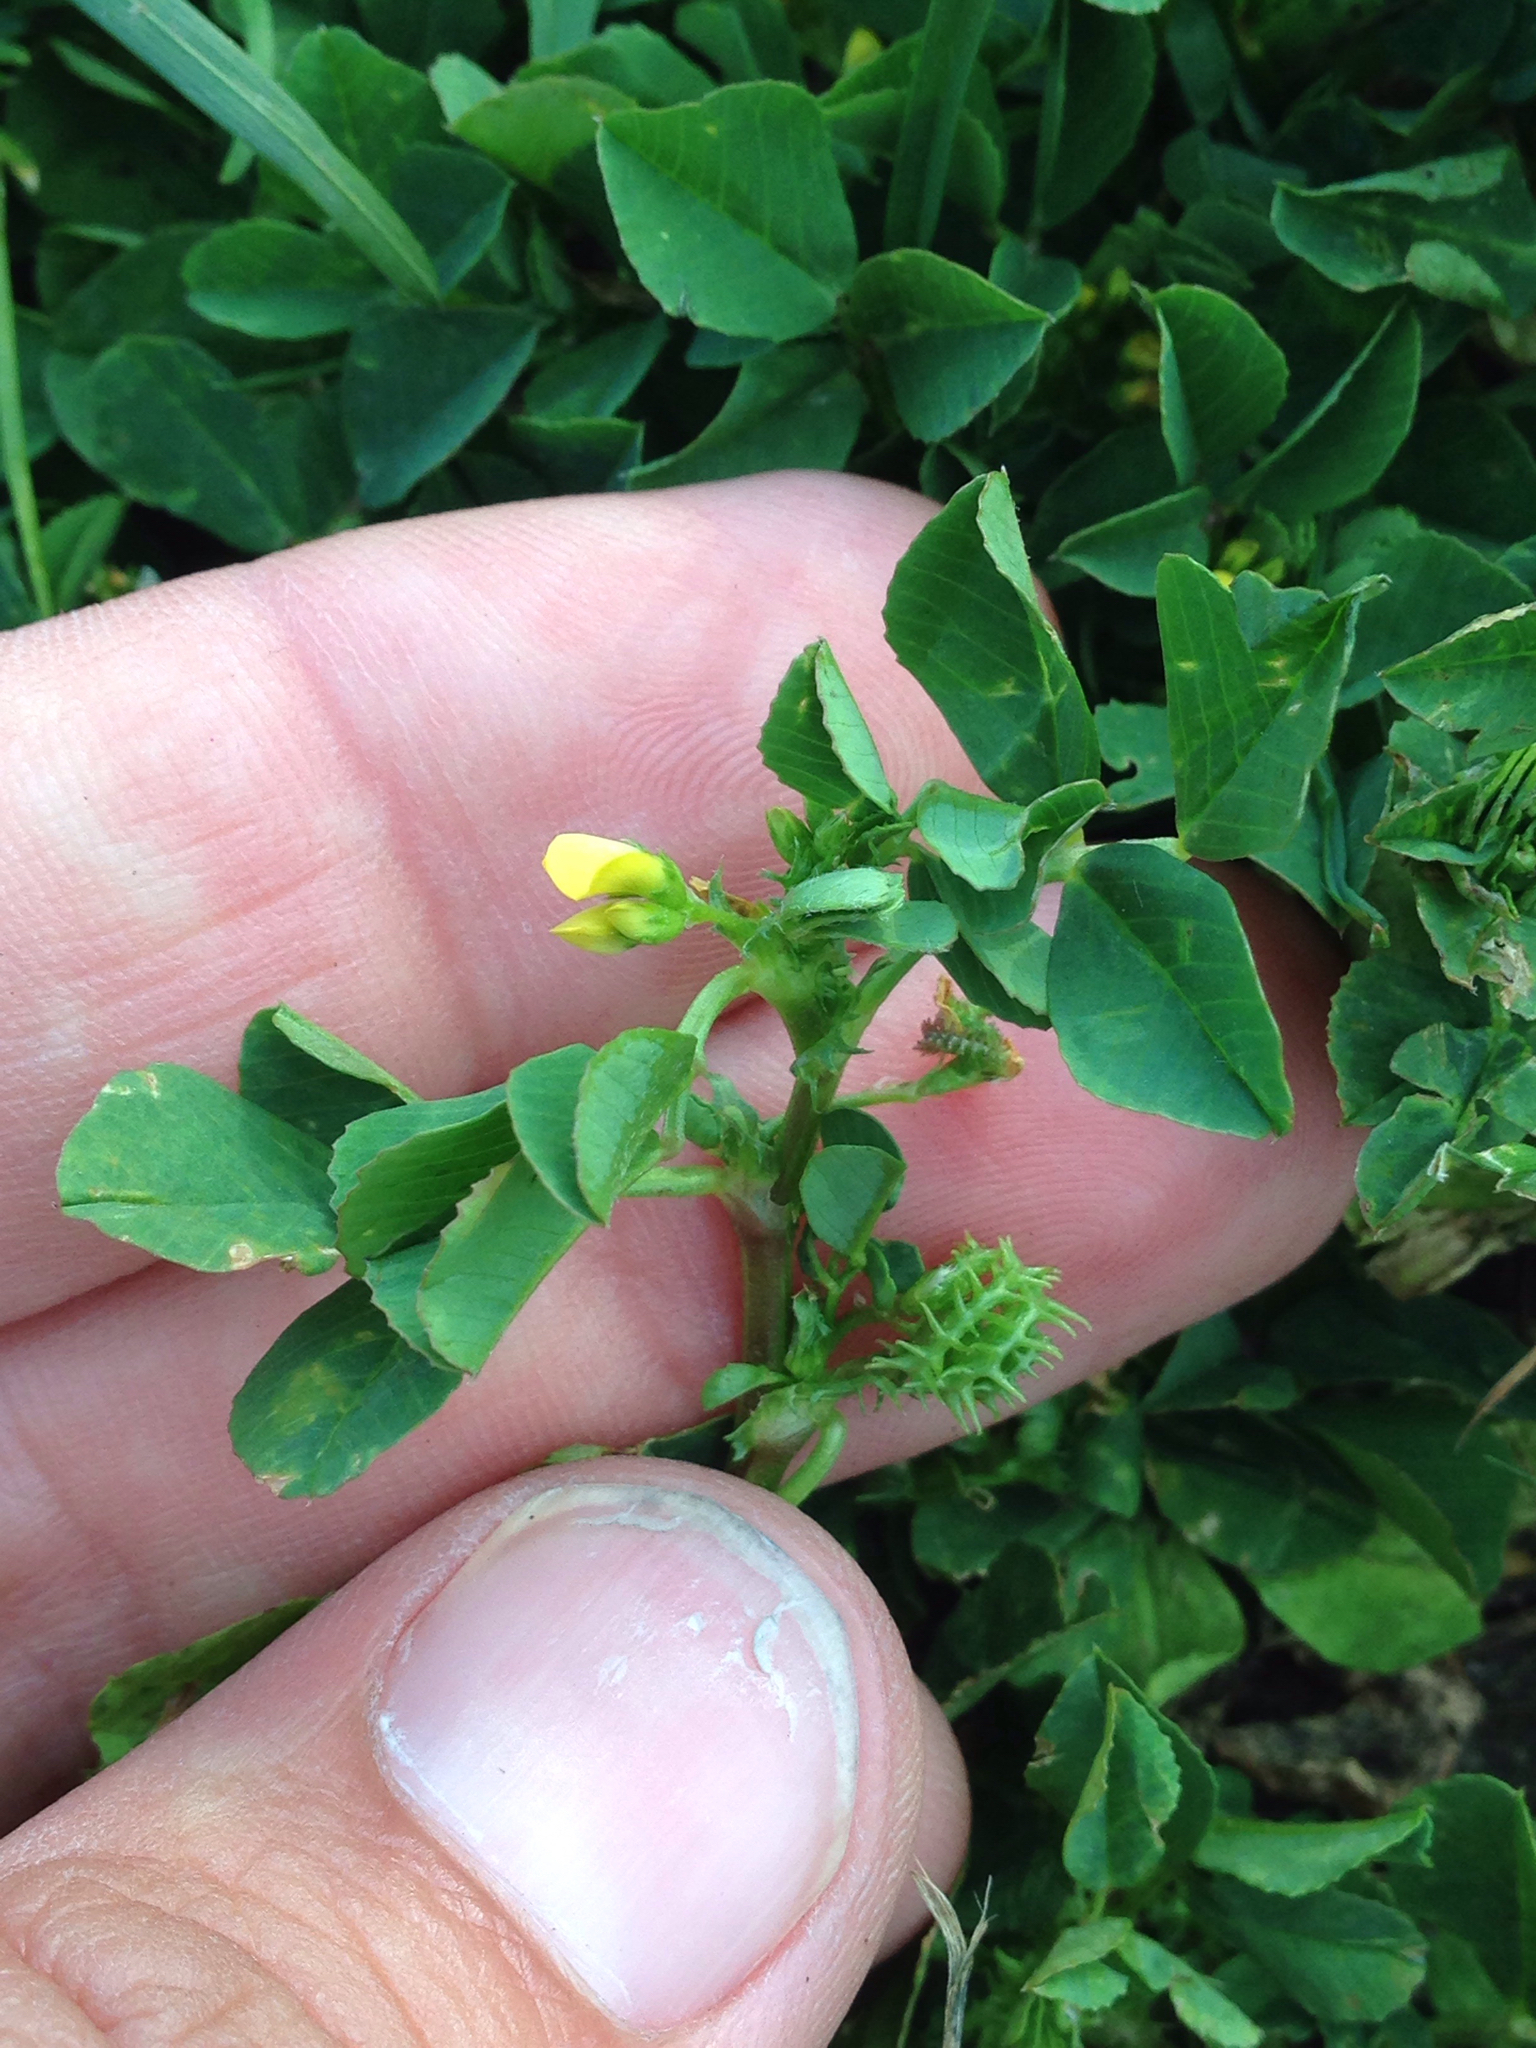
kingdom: Plantae
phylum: Tracheophyta
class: Magnoliopsida
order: Fabales
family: Fabaceae
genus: Medicago
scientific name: Medicago polymorpha
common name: Burclover
